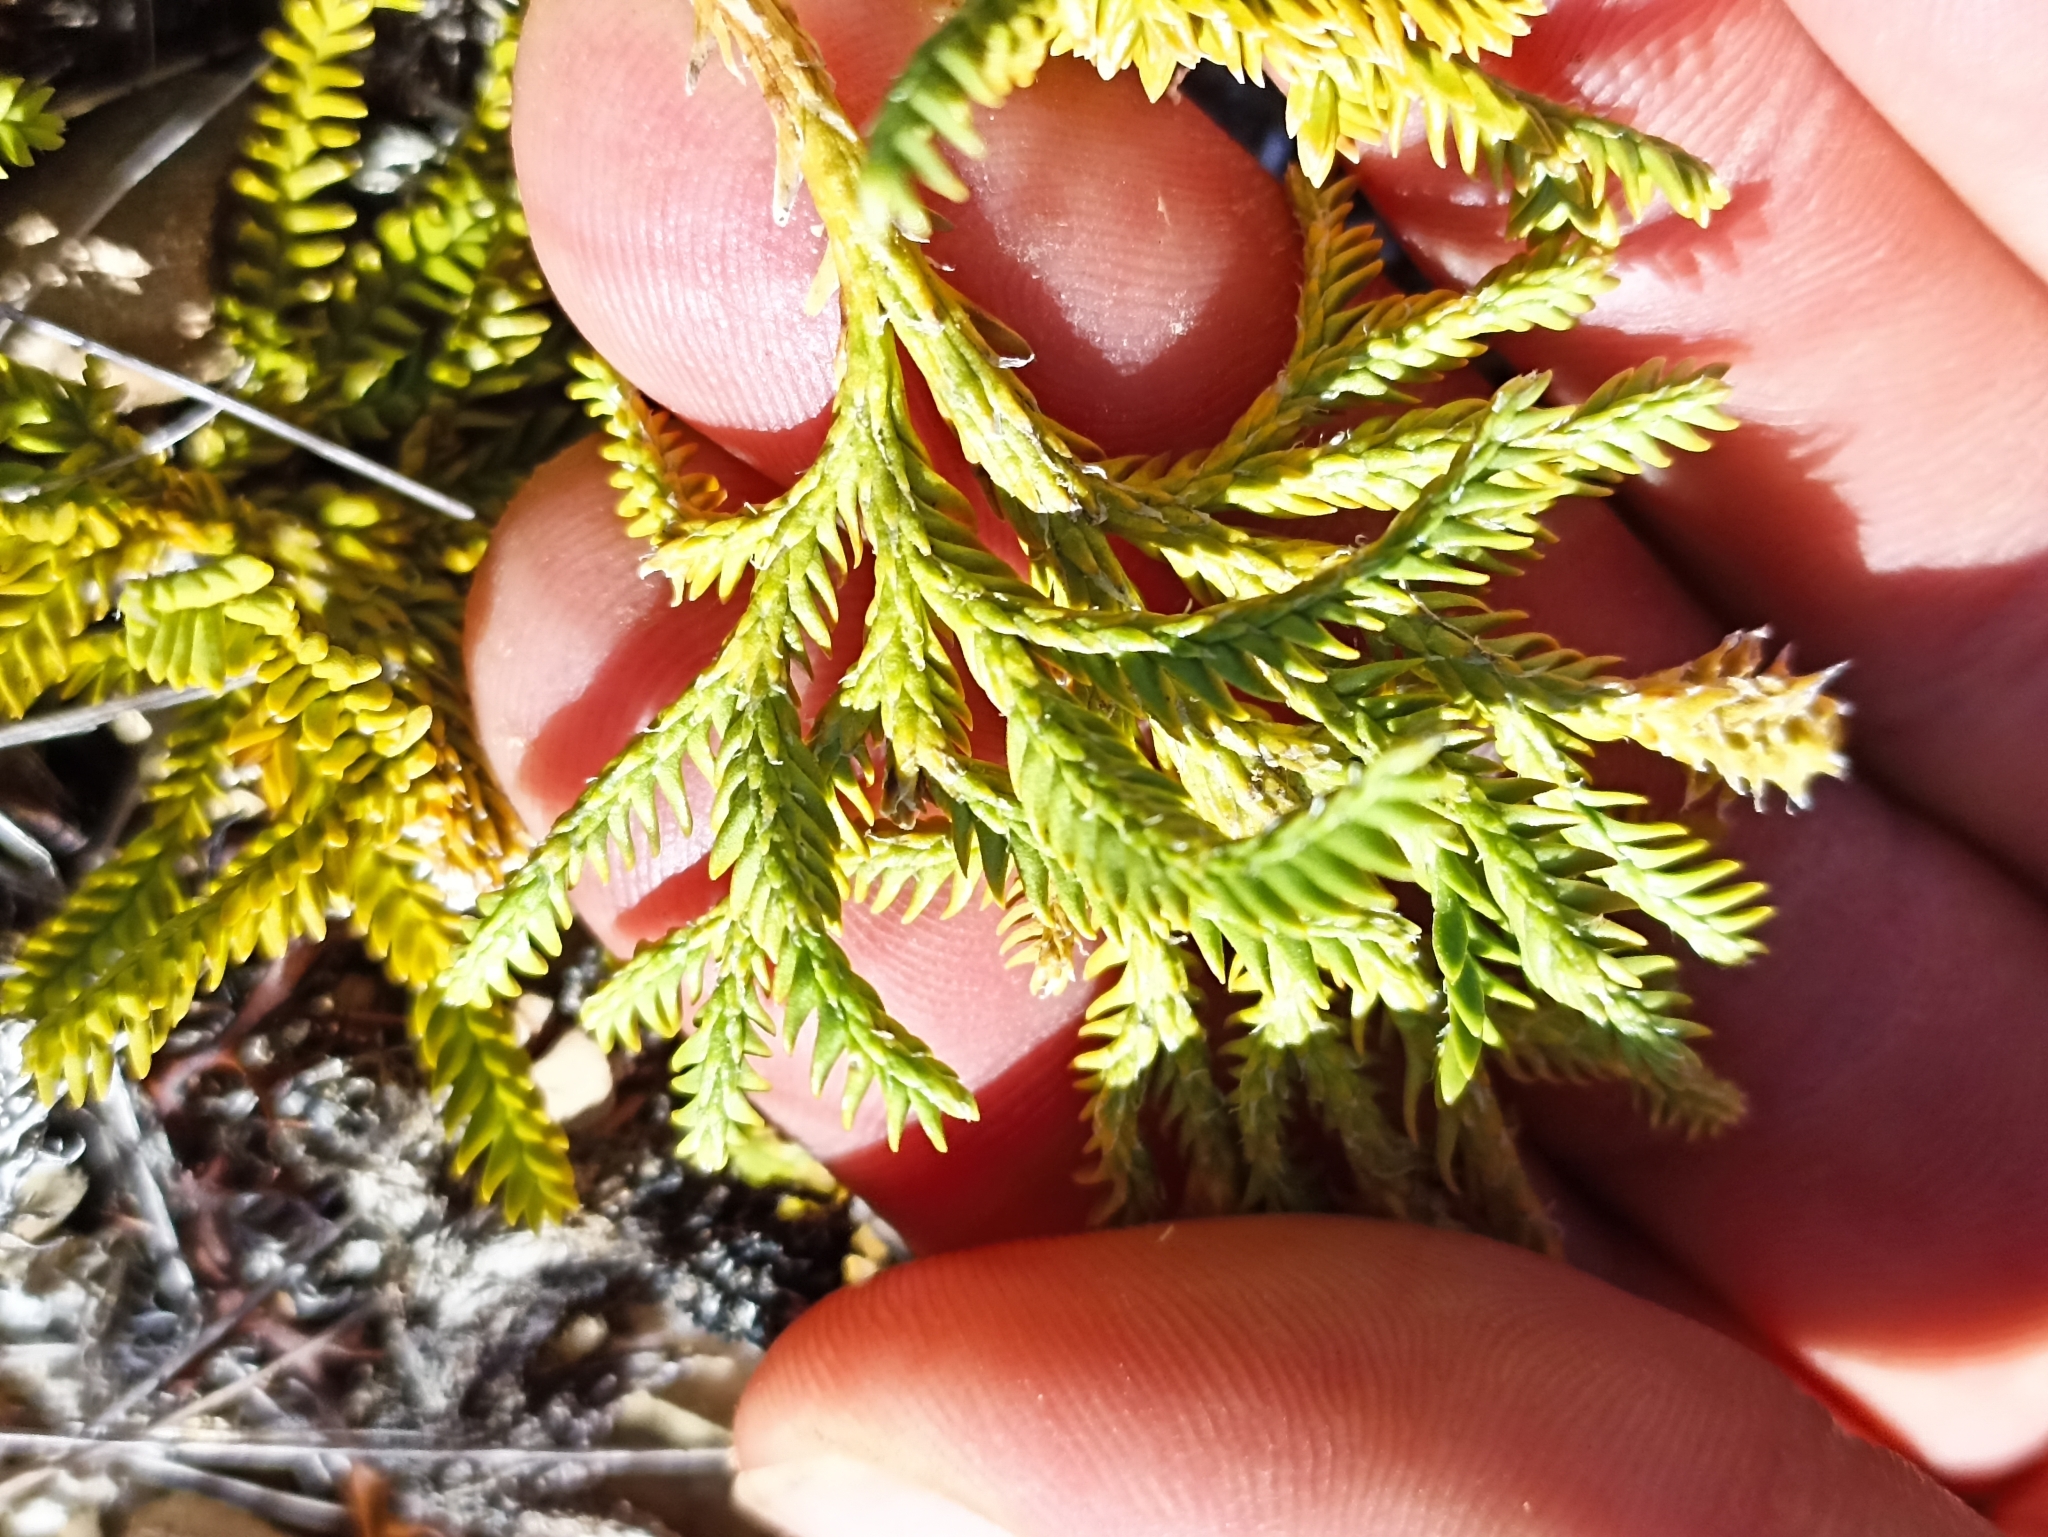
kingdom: Plantae
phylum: Tracheophyta
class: Lycopodiopsida
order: Lycopodiales
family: Lycopodiaceae
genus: Diphasium
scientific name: Diphasium scariosum
